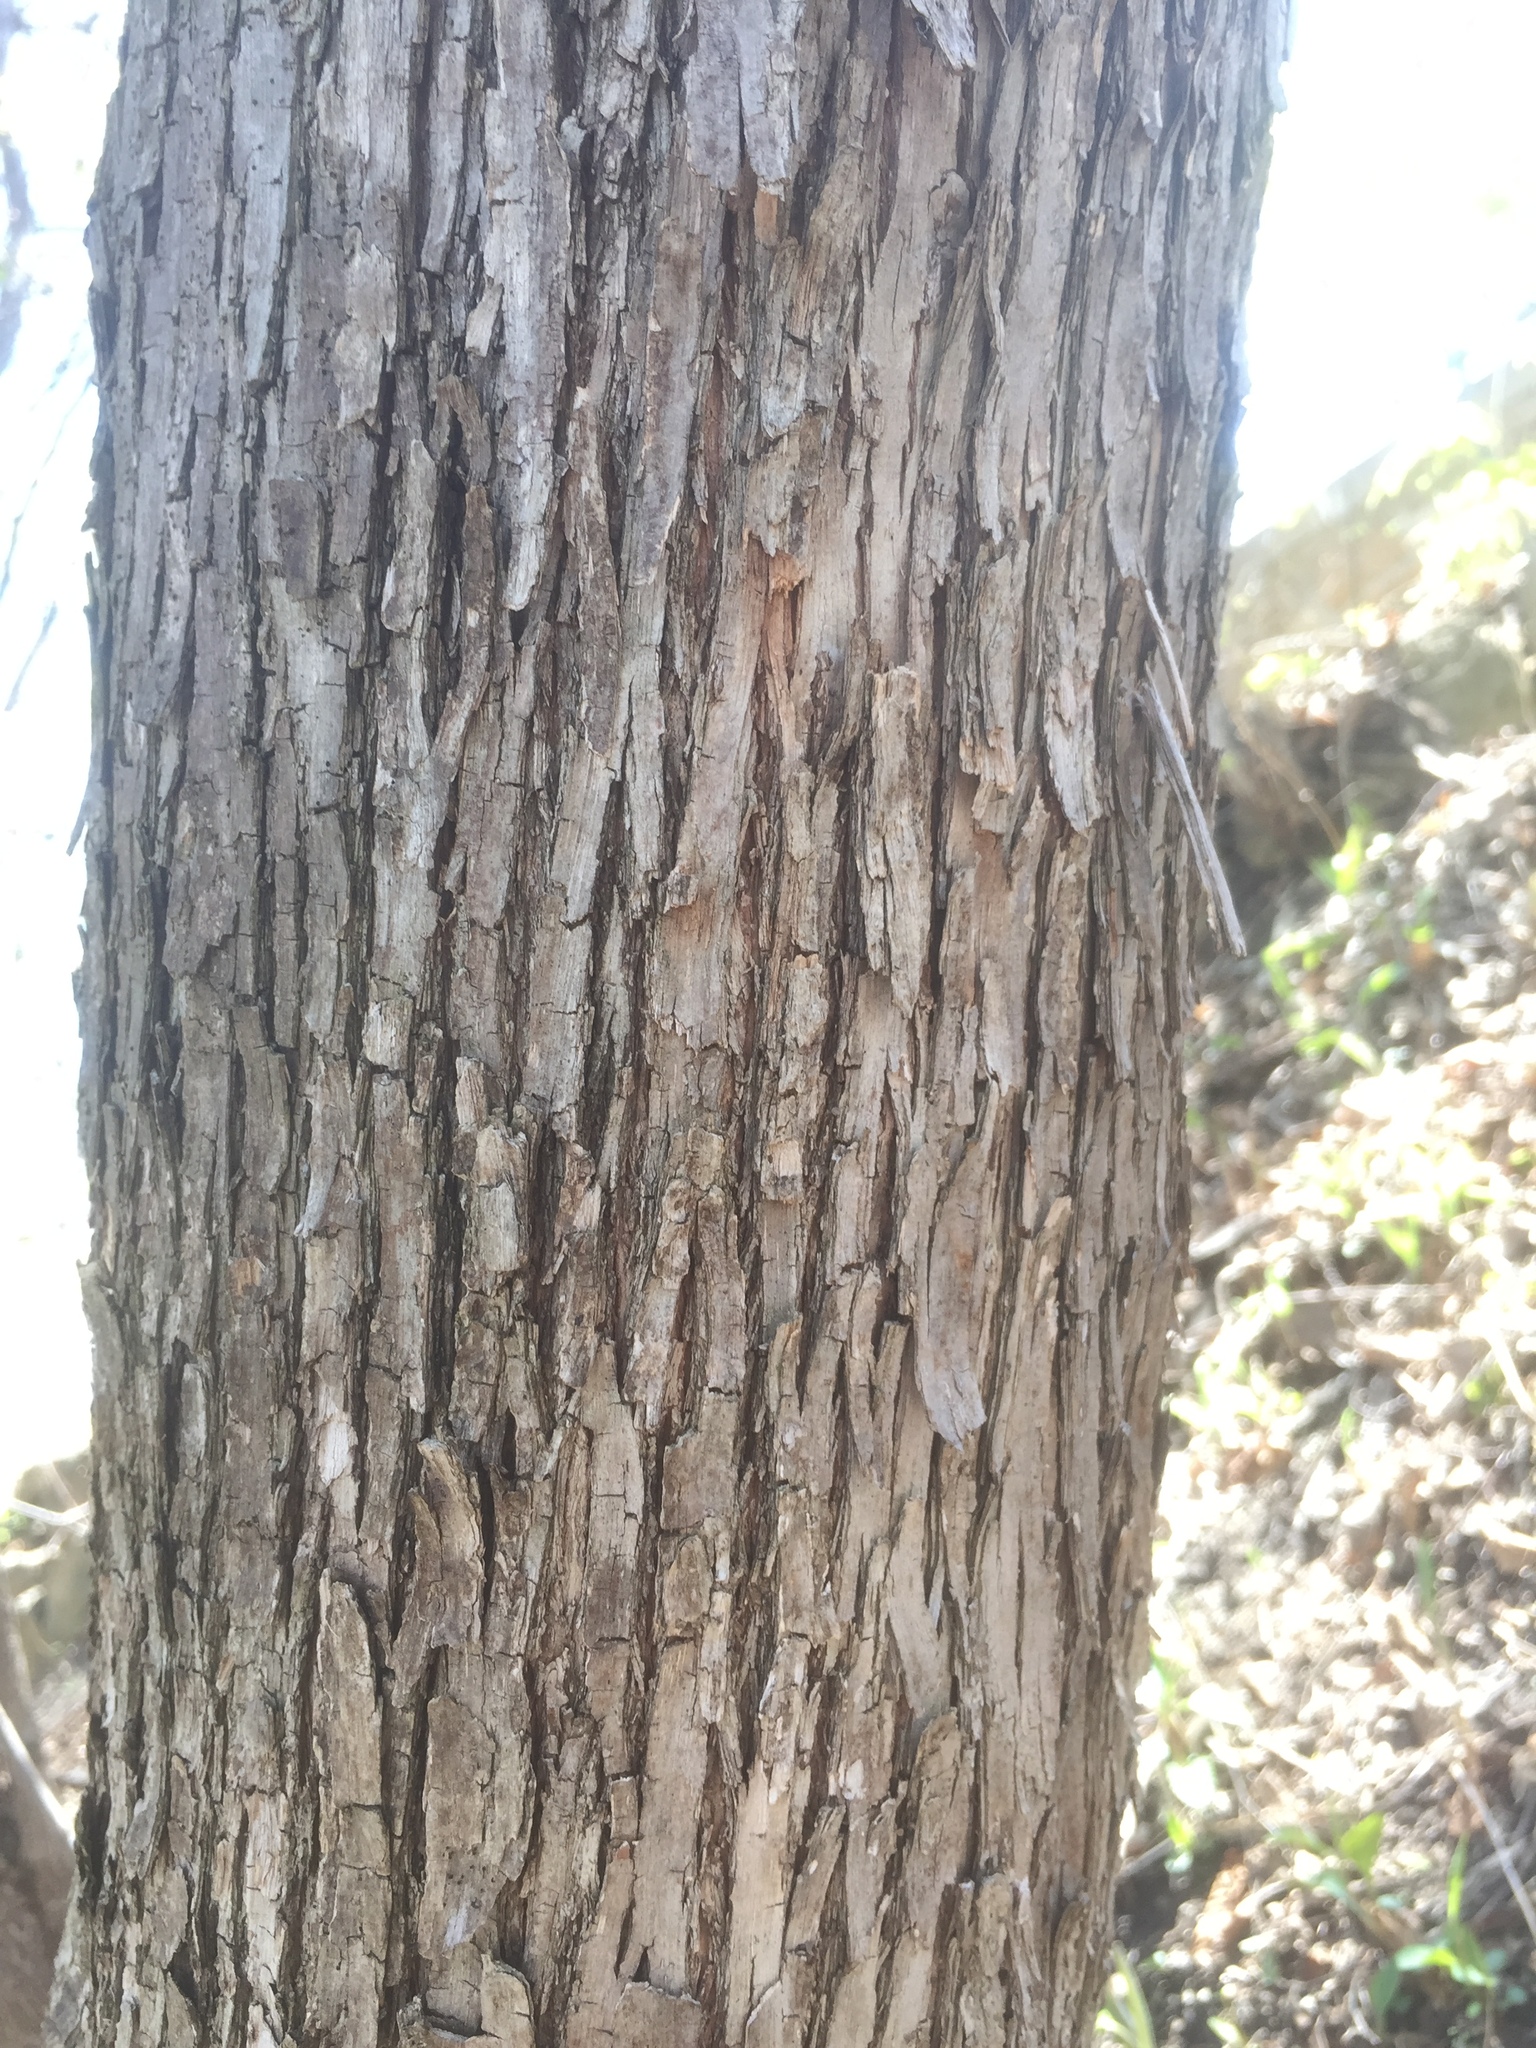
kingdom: Plantae
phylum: Tracheophyta
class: Magnoliopsida
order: Fagales
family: Betulaceae
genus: Ostrya
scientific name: Ostrya virginiana
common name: Ironwood
